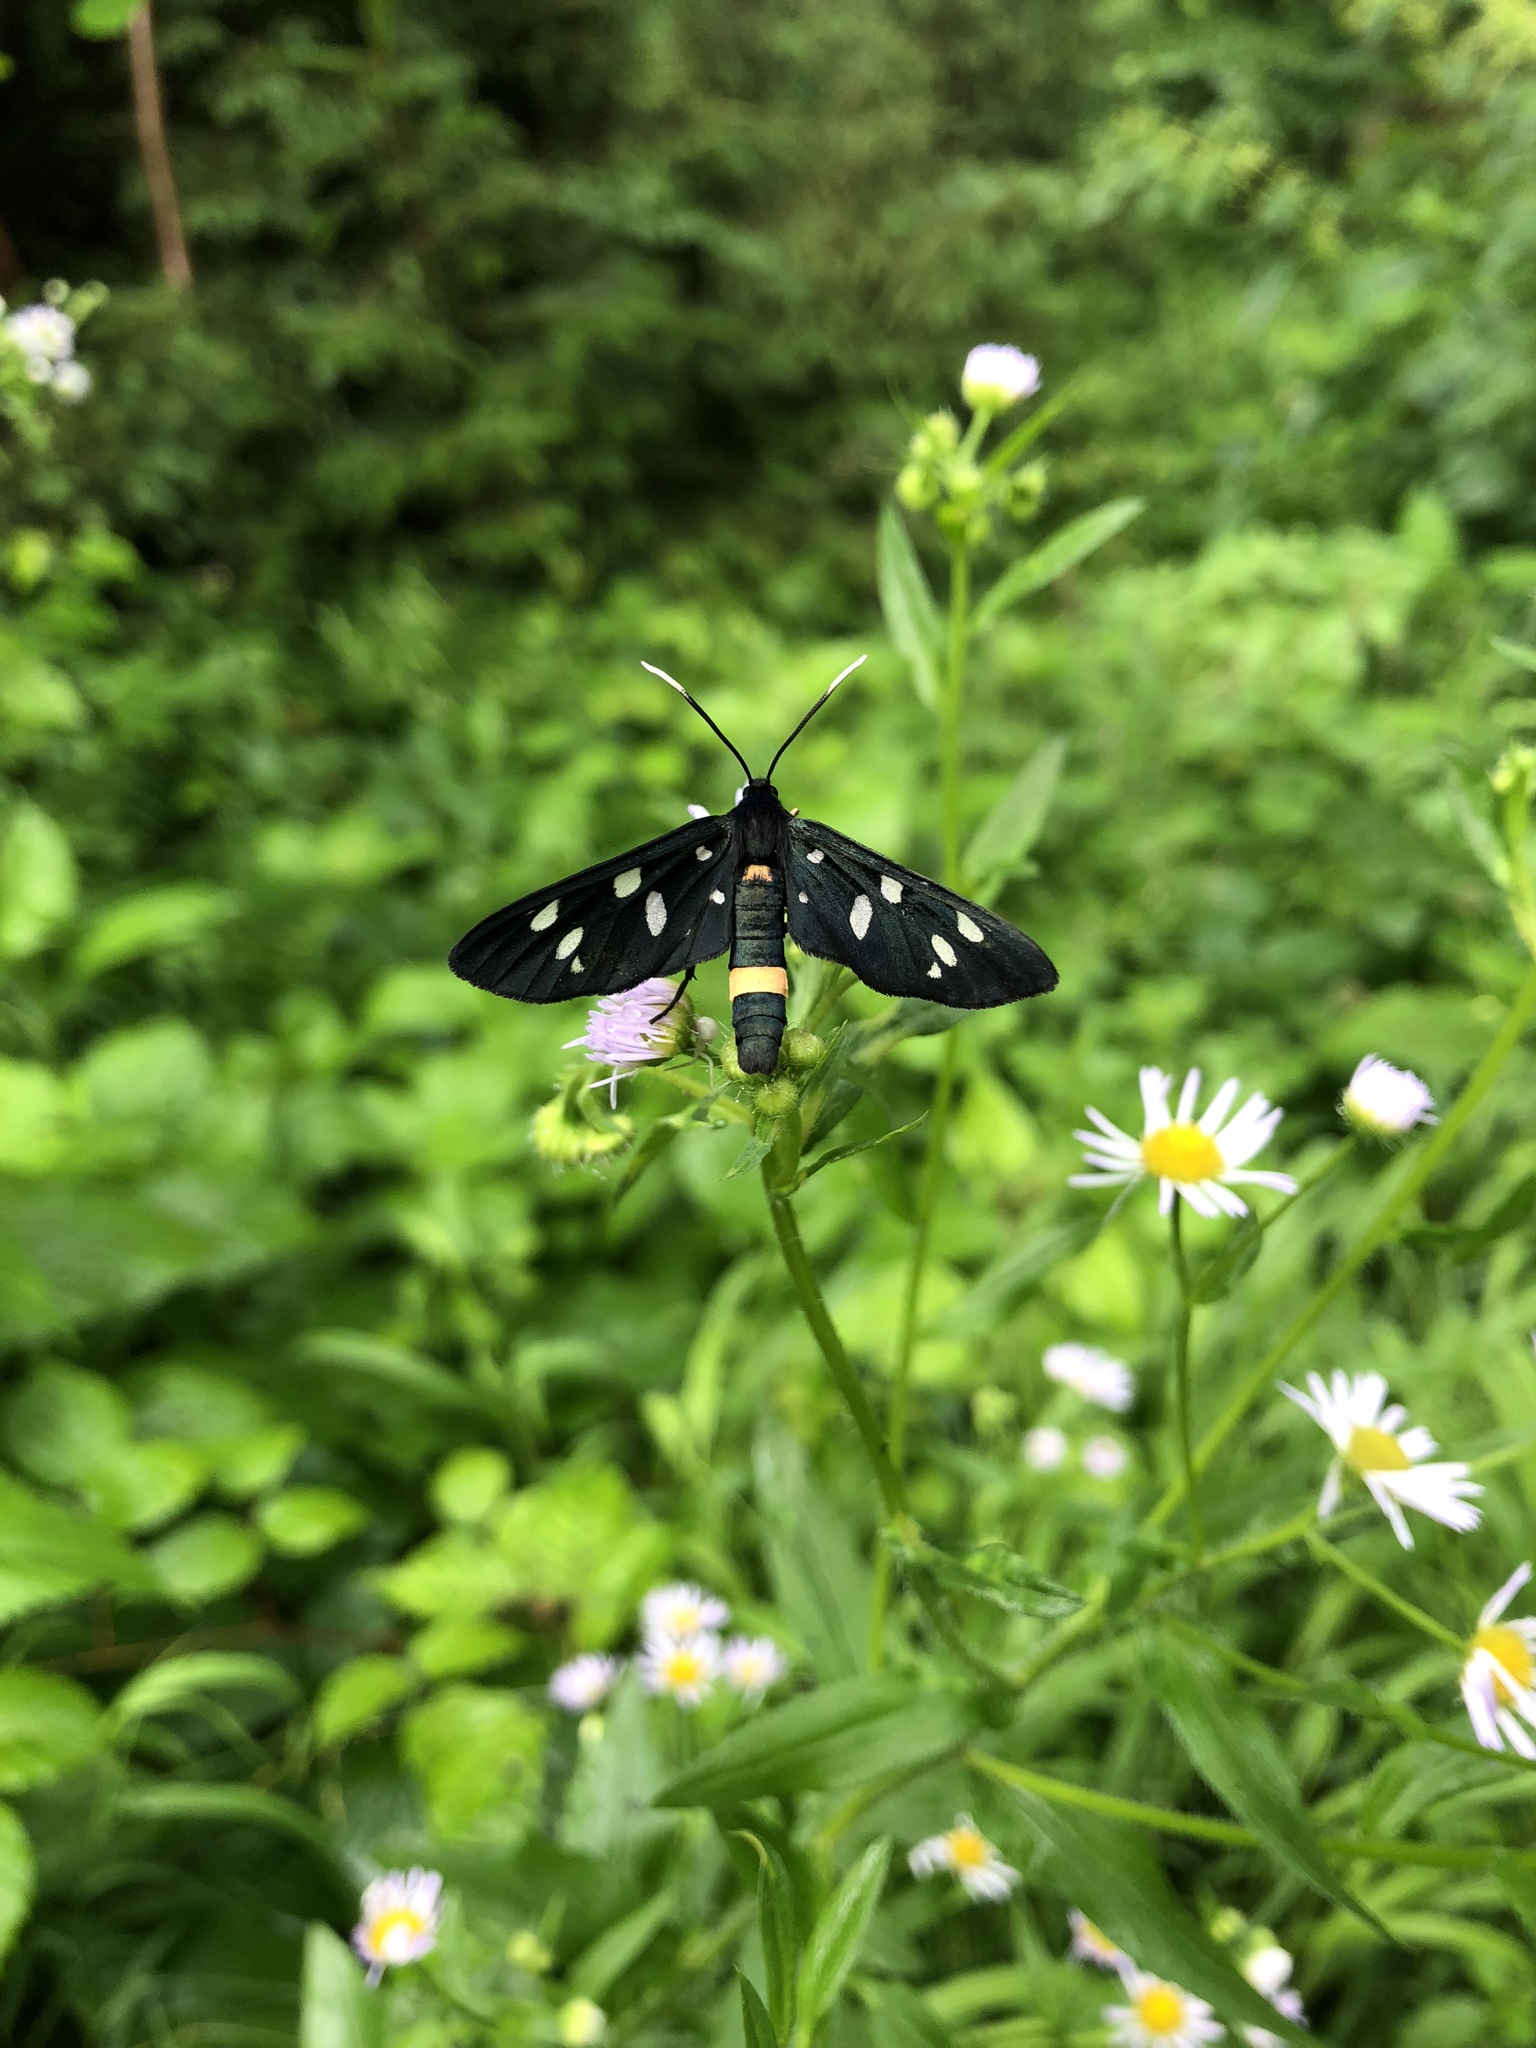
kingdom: Animalia
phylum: Arthropoda
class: Insecta
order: Lepidoptera
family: Erebidae
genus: Amata
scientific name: Amata phegea
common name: Nine-spotted
